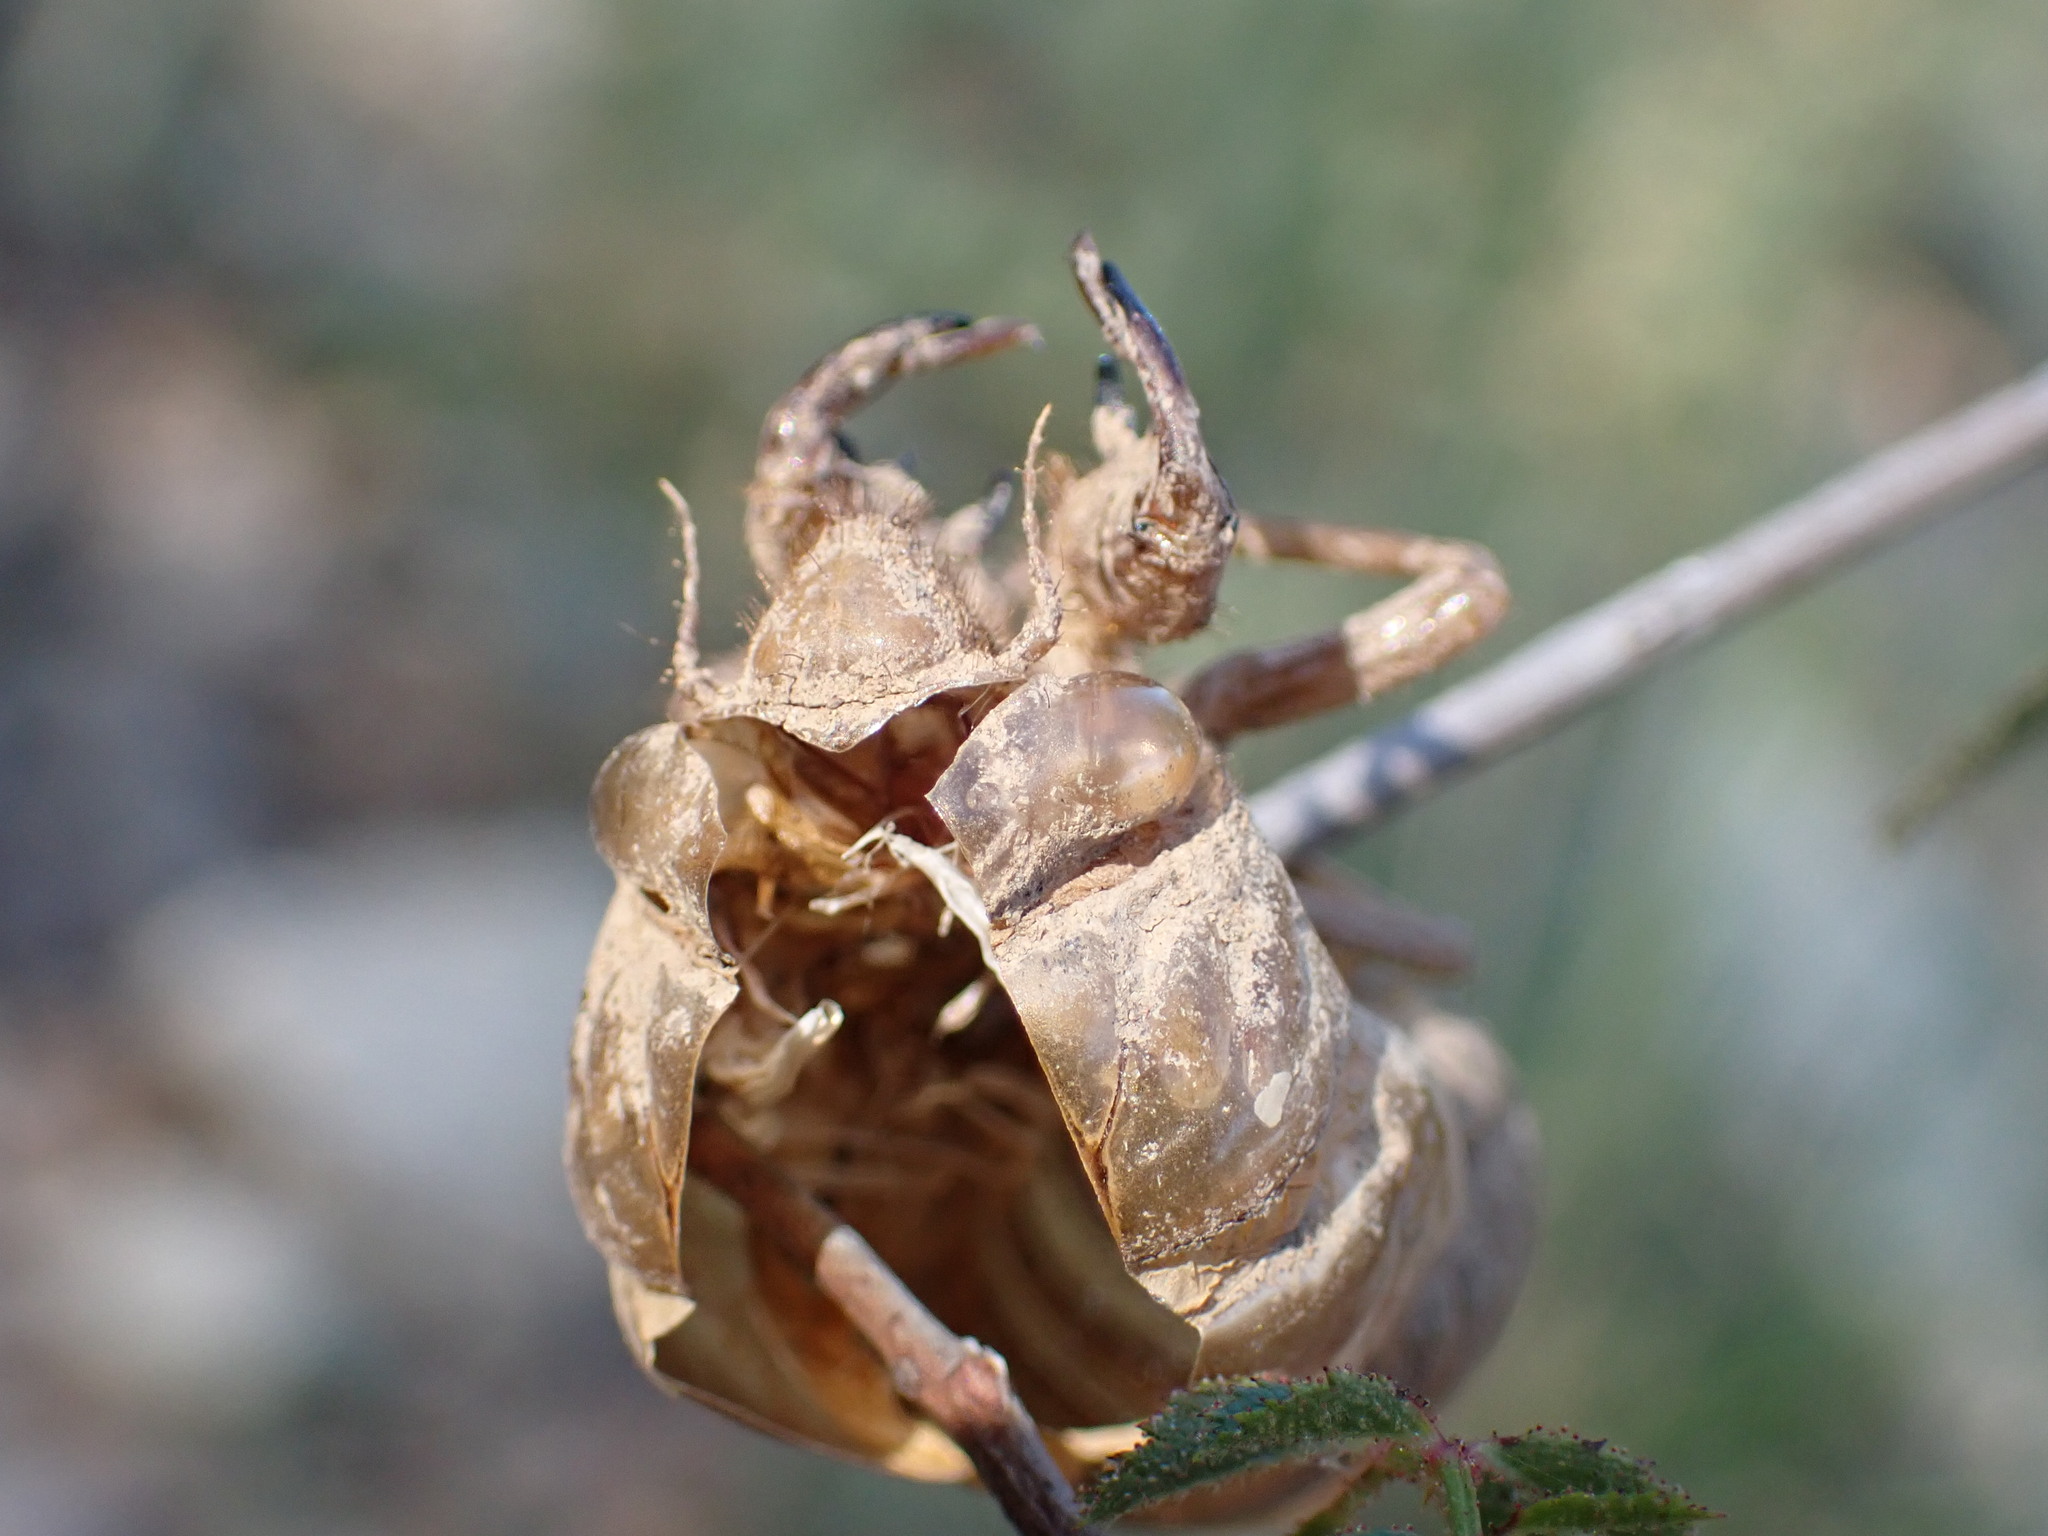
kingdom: Animalia
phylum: Arthropoda
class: Insecta
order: Hemiptera
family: Cicadidae
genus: Lyristes
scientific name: Lyristes plebejus
